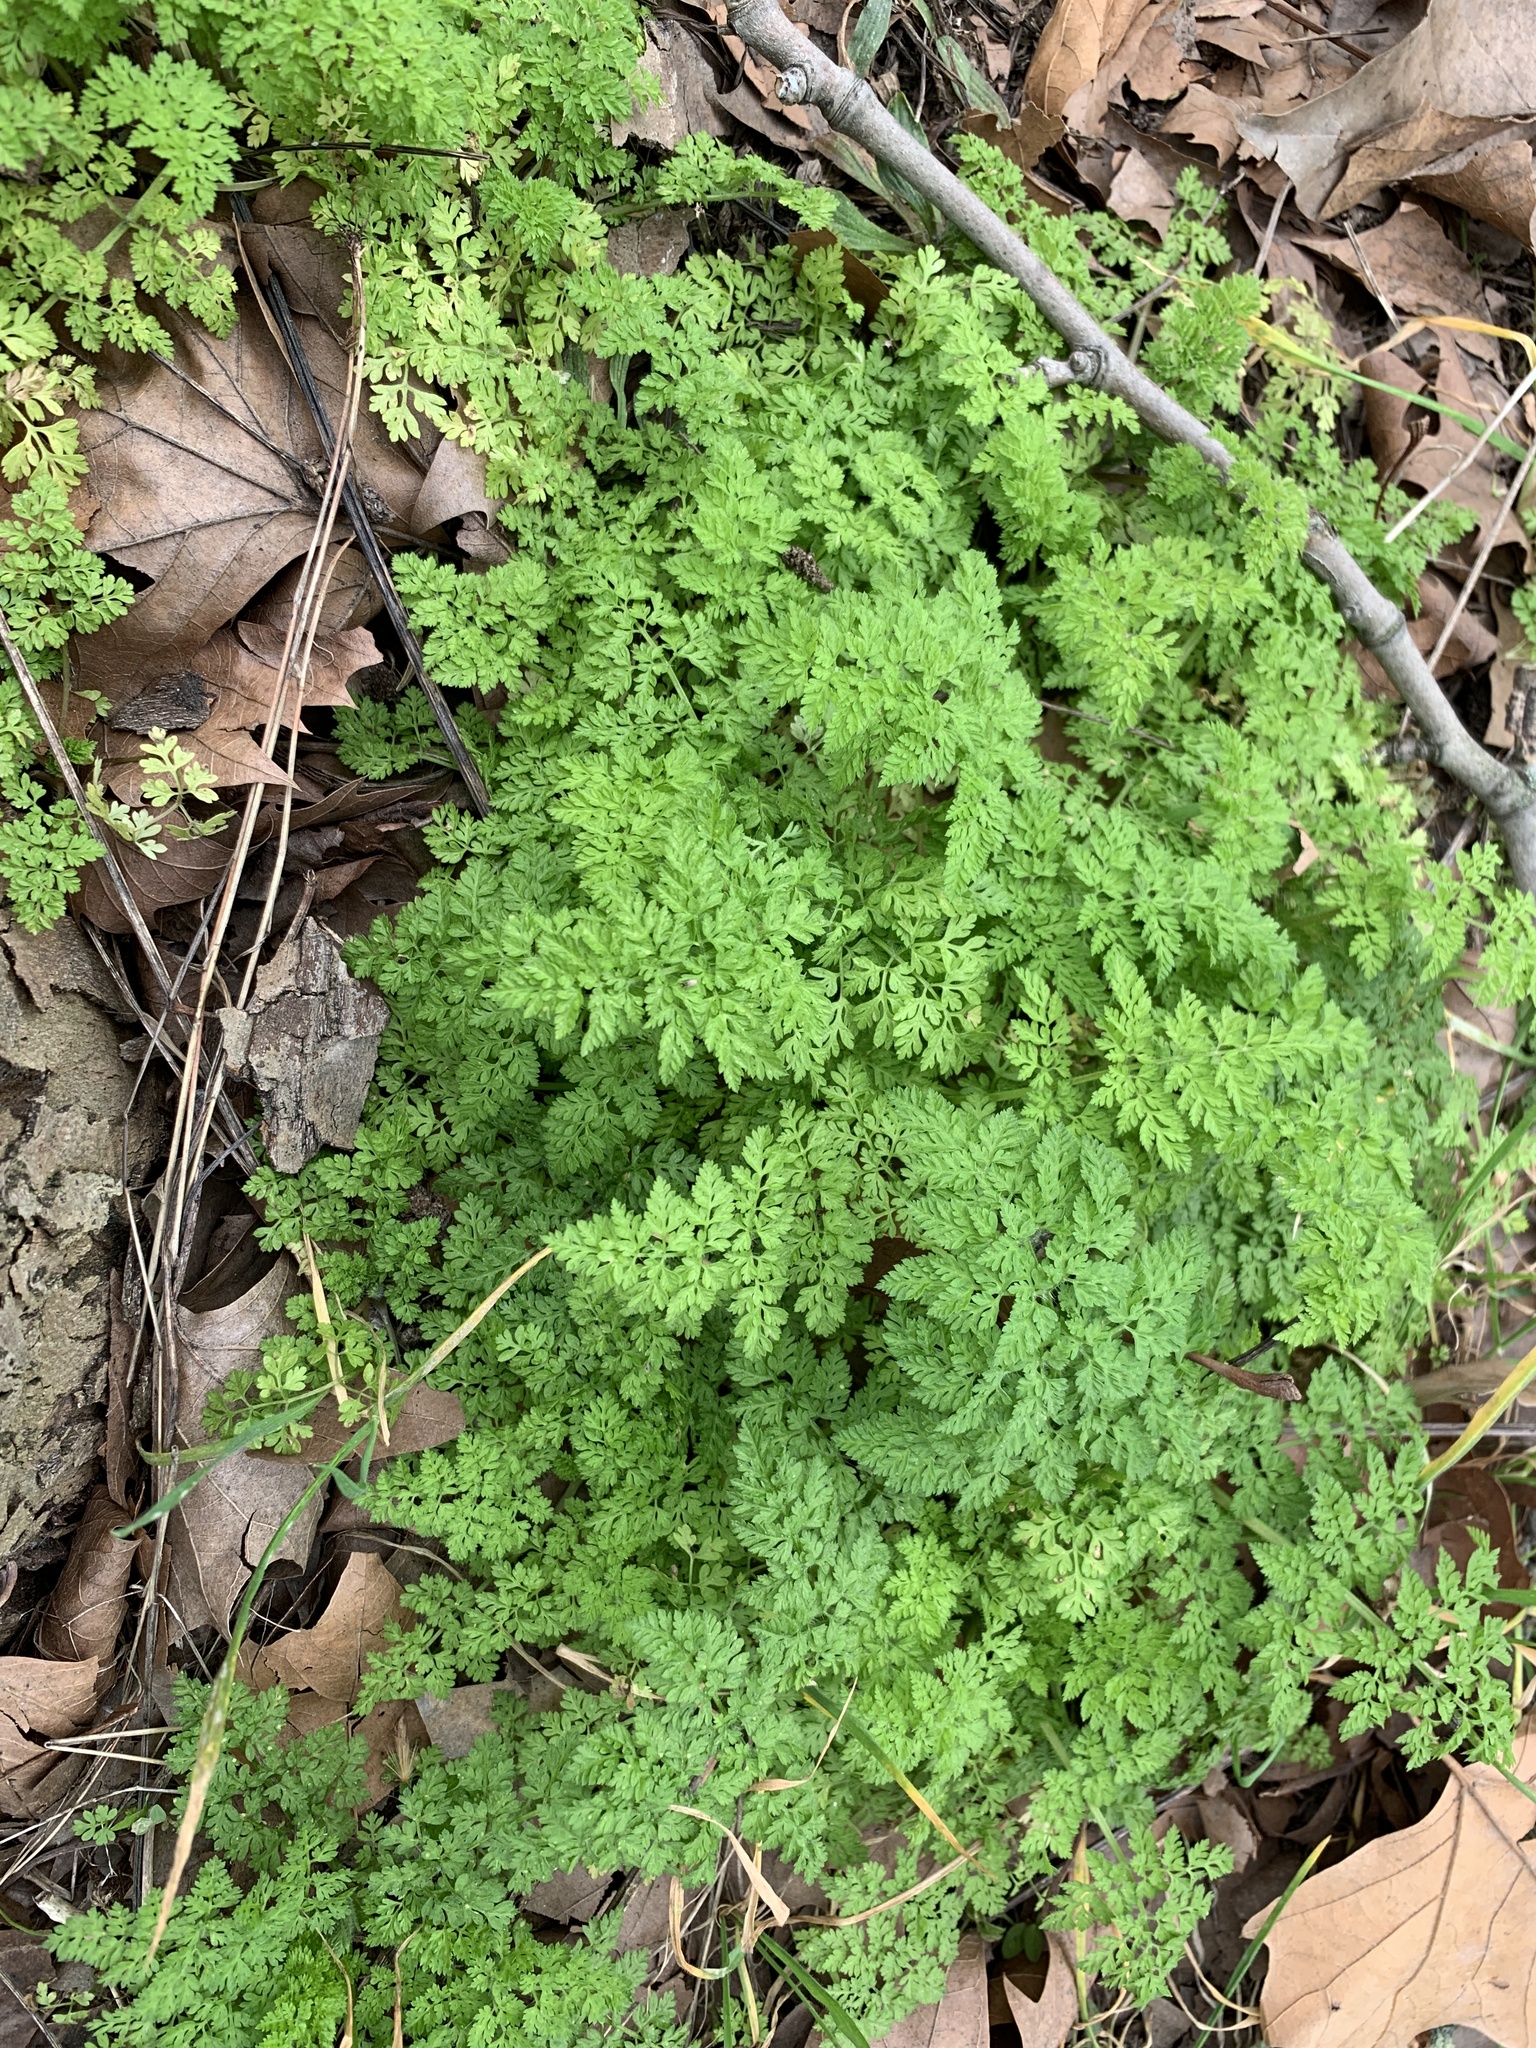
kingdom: Plantae
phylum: Tracheophyta
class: Magnoliopsida
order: Apiales
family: Apiaceae
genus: Anthriscus
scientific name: Anthriscus caucalis
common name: Bur chervil
